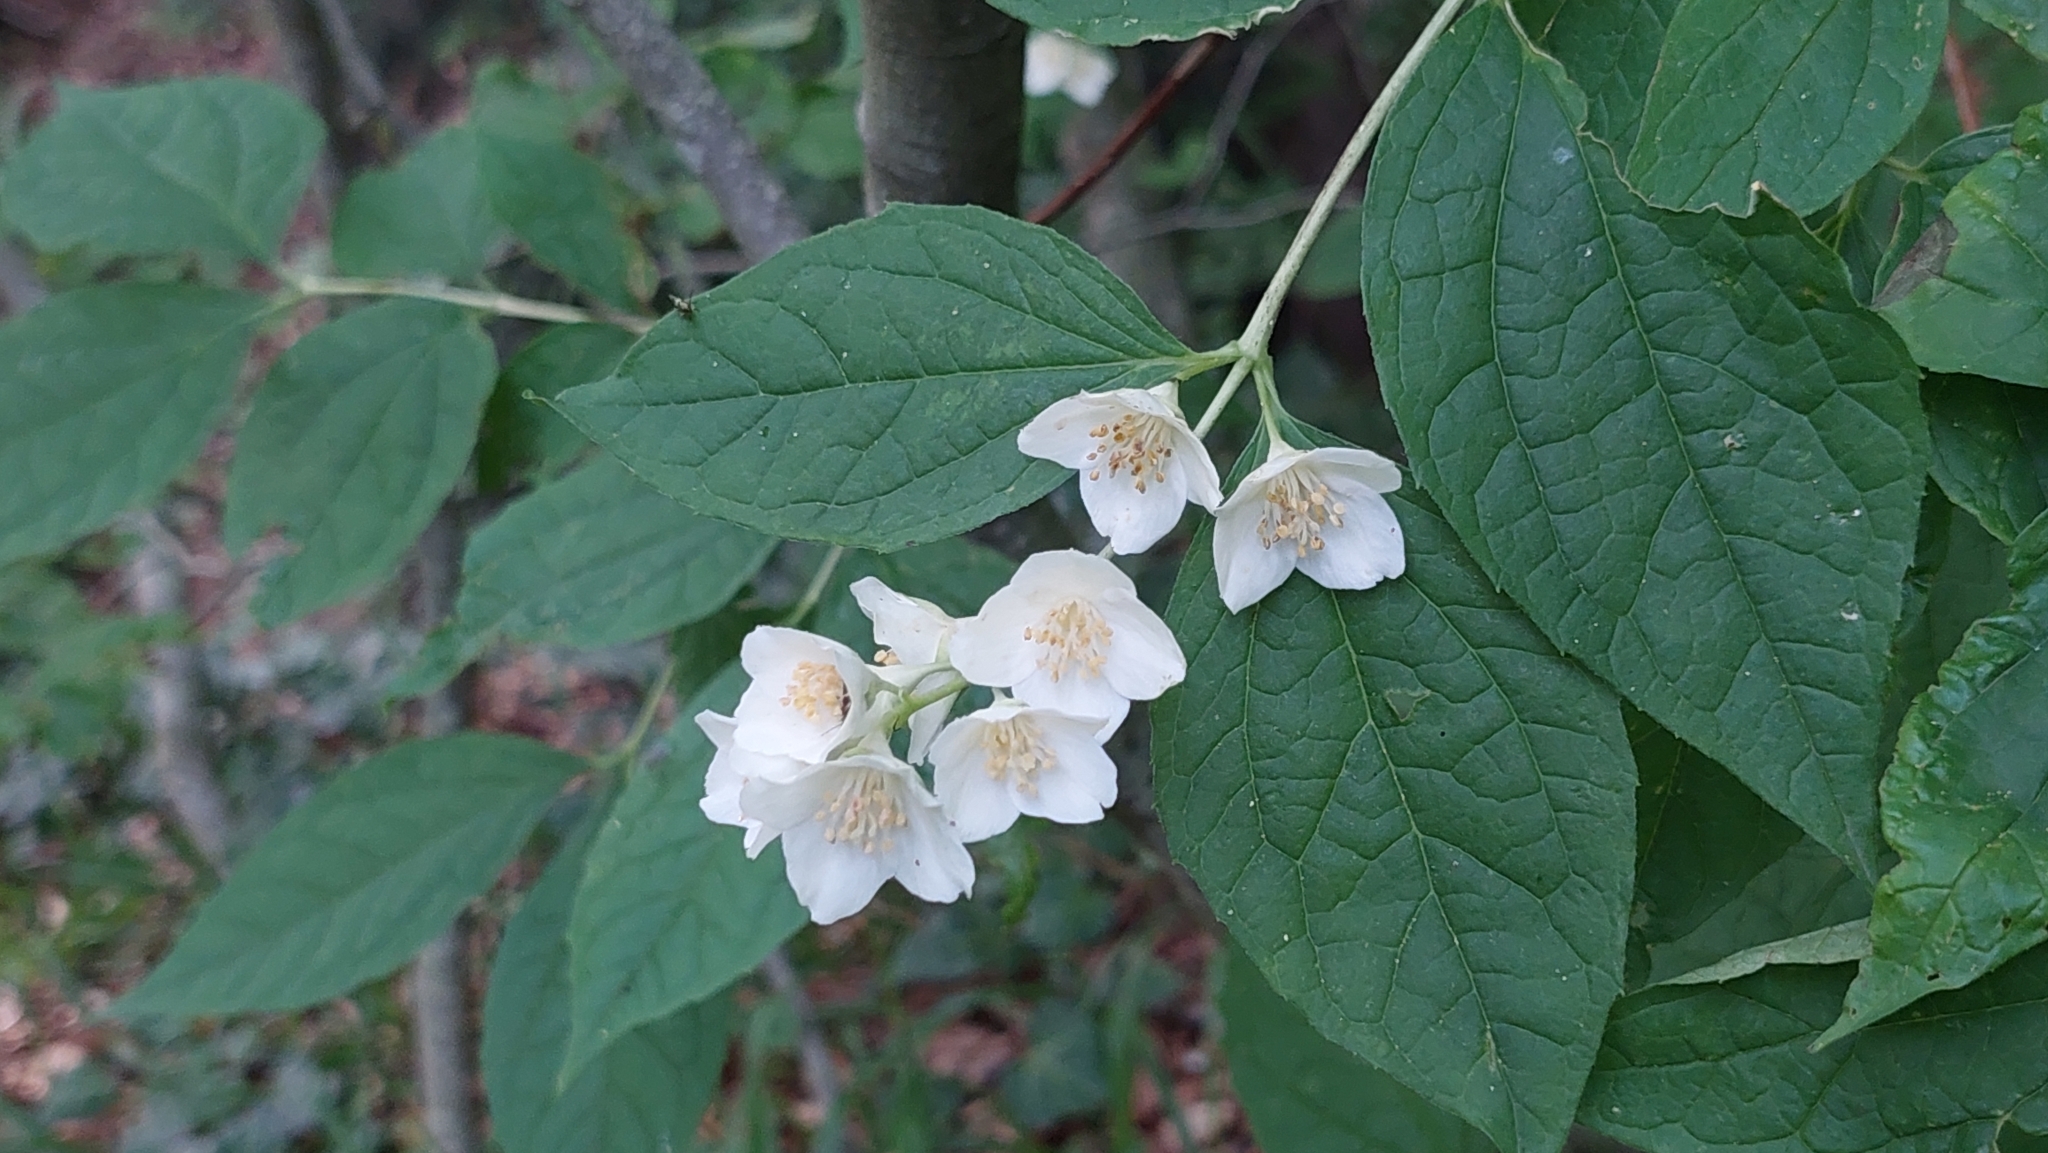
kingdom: Plantae
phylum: Tracheophyta
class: Magnoliopsida
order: Cornales
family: Hydrangeaceae
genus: Philadelphus
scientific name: Philadelphus coronarius
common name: Mock orange
